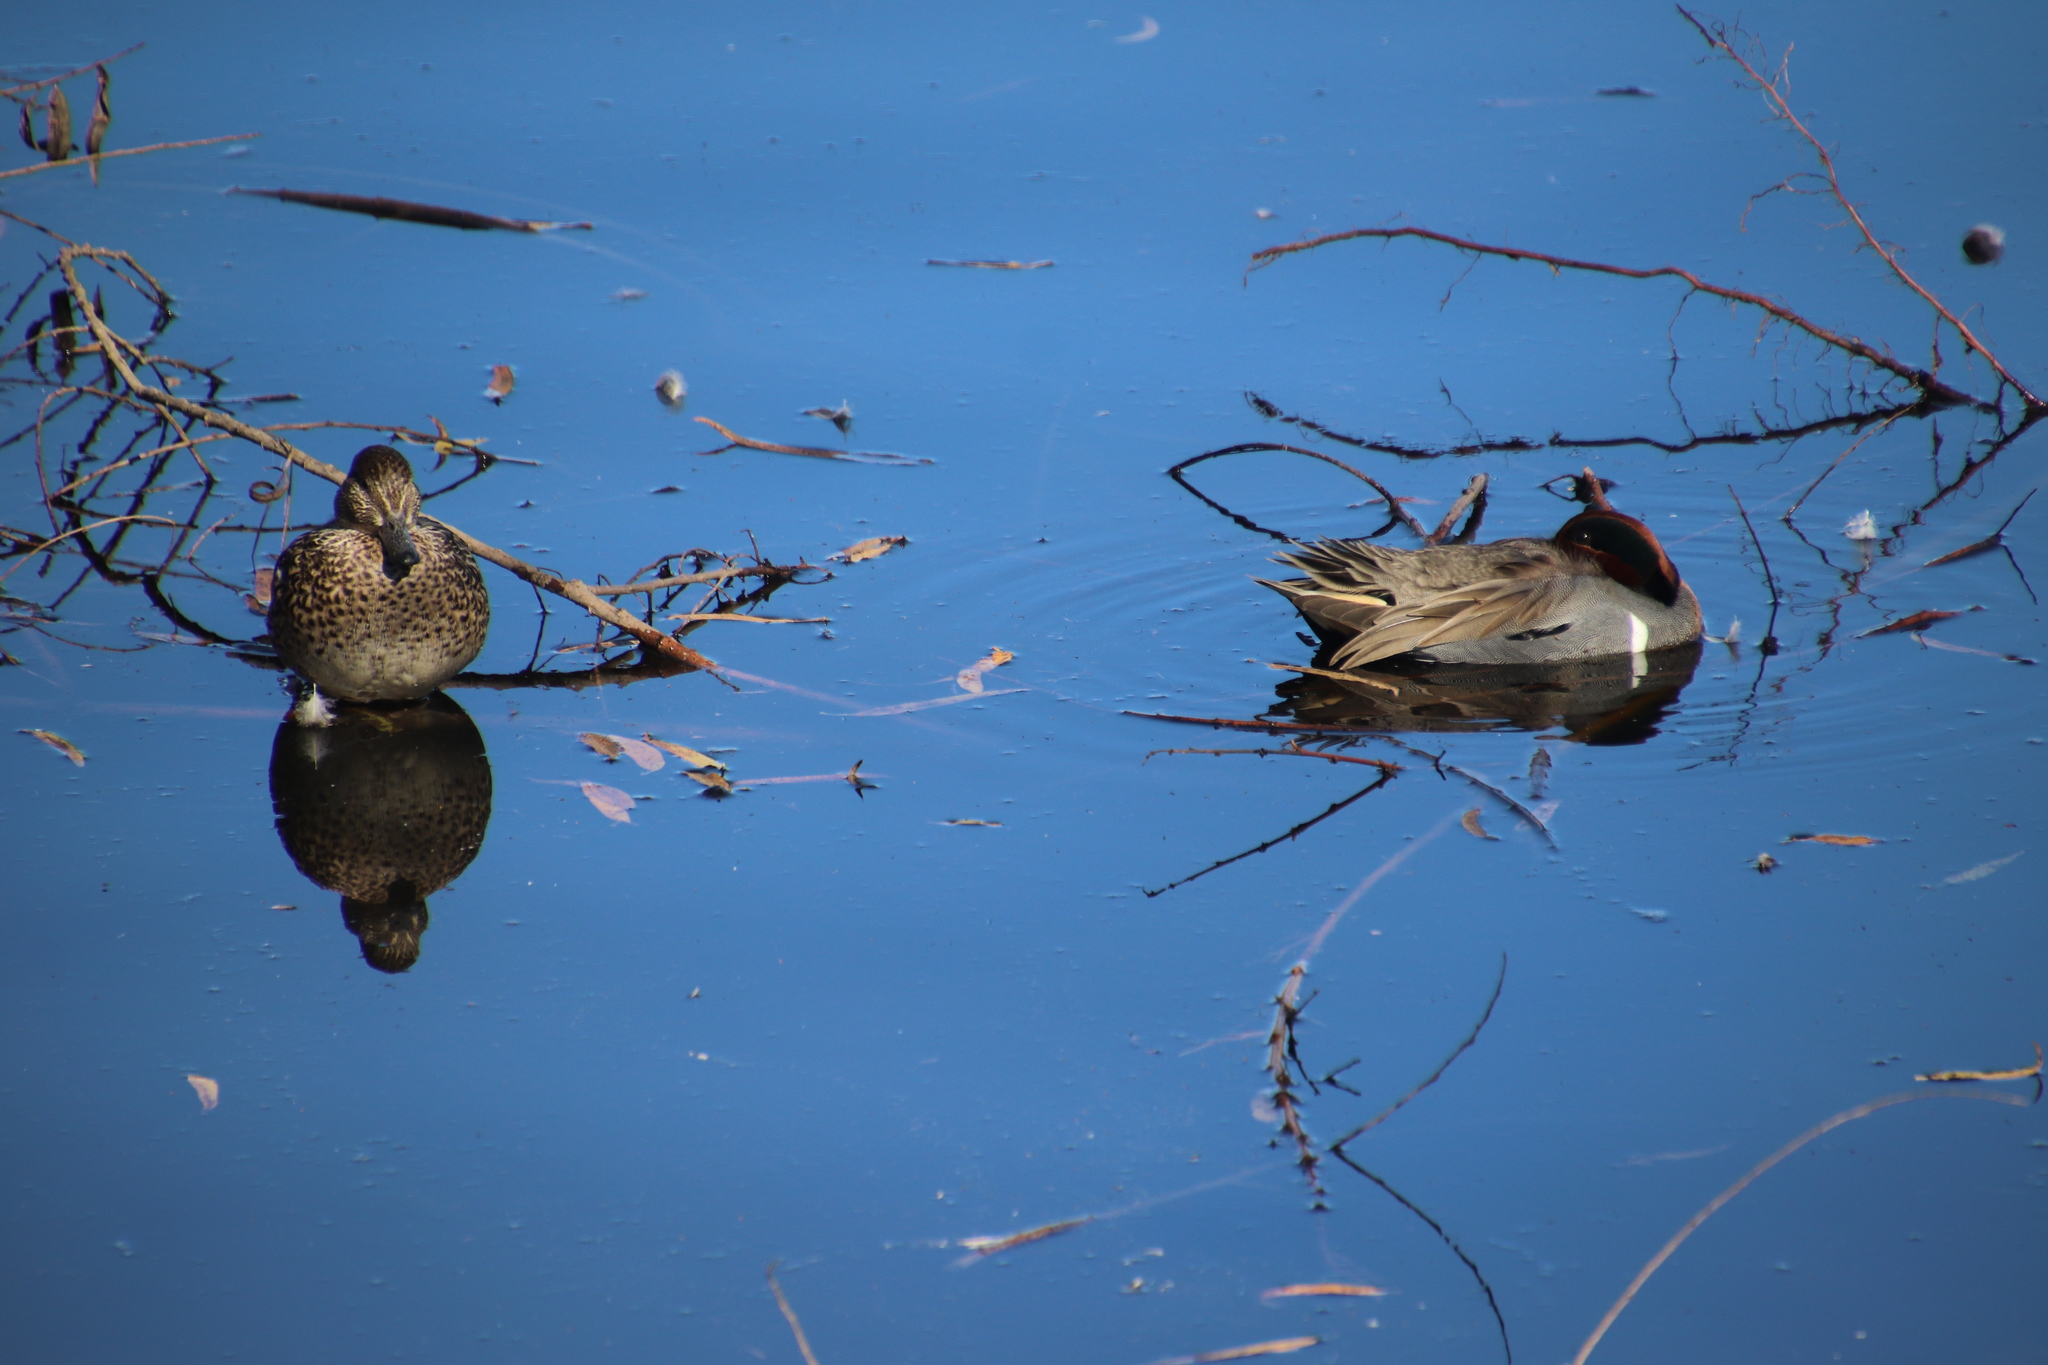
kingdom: Animalia
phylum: Chordata
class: Aves
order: Anseriformes
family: Anatidae
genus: Anas
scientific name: Anas crecca
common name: Eurasian teal
